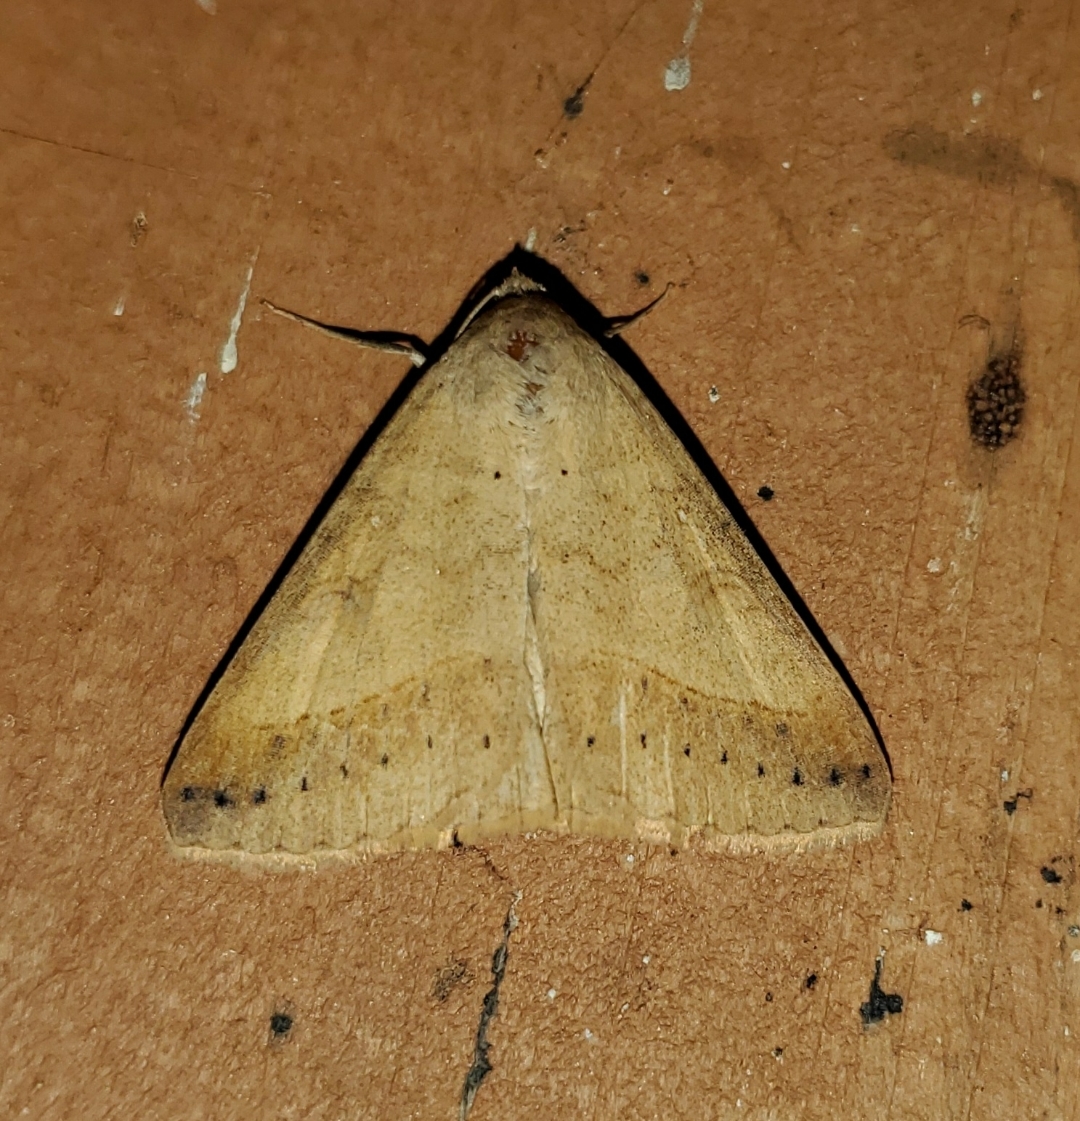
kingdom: Animalia
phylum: Arthropoda
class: Insecta
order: Lepidoptera
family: Erebidae
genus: Mocis
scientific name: Mocis marcida
